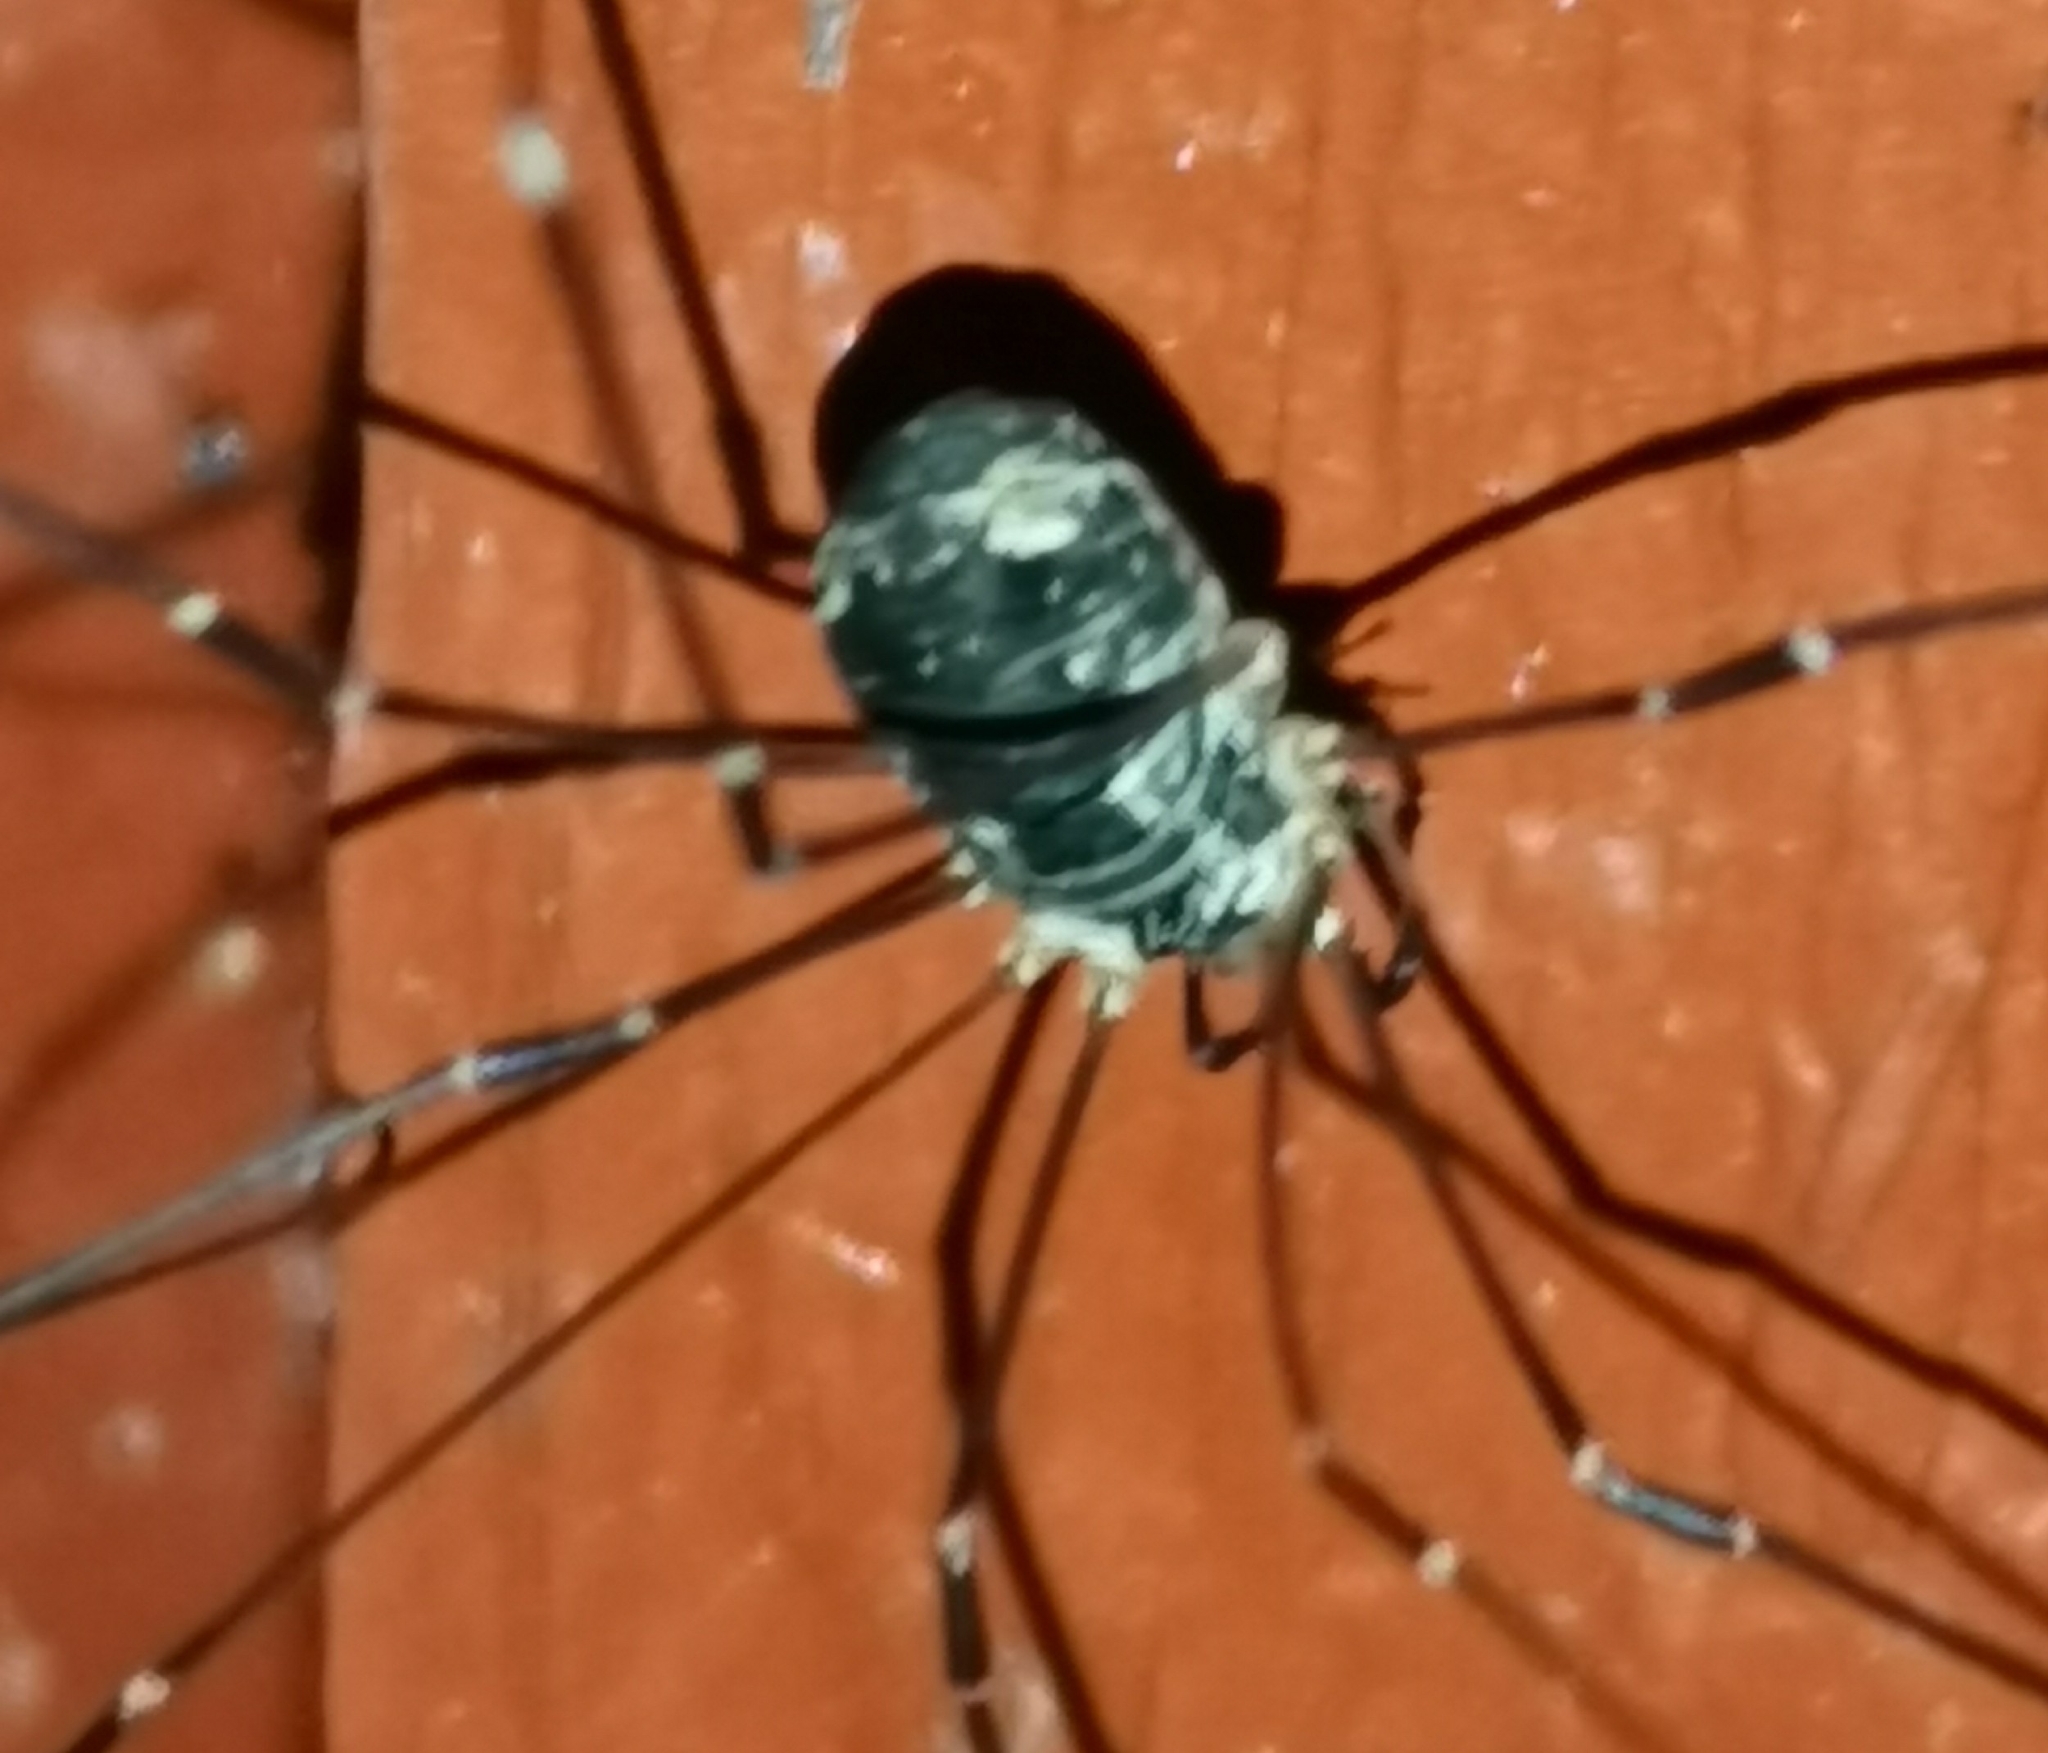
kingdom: Animalia
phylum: Arthropoda
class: Arachnida
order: Opiliones
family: Sclerosomatidae
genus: Leiobunum
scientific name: Leiobunum gracile
